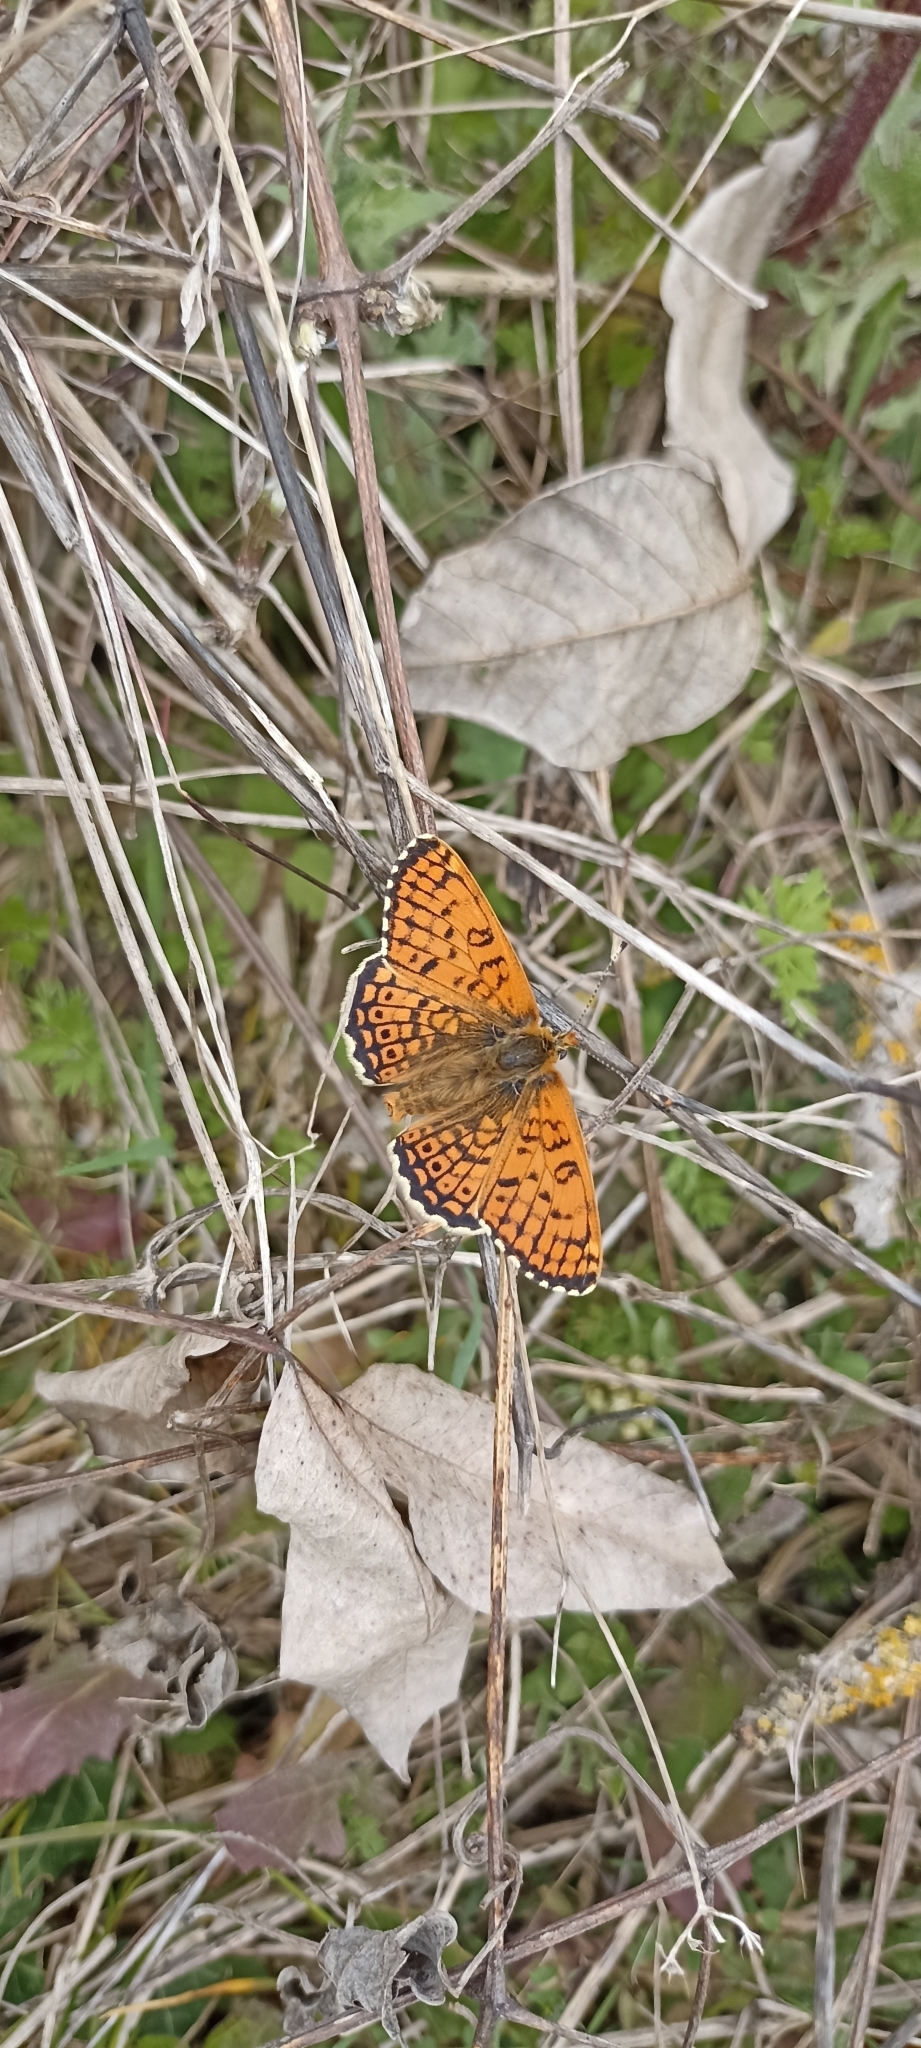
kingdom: Animalia
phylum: Arthropoda
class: Insecta
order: Lepidoptera
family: Nymphalidae
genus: Melitaea
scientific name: Melitaea cinxia
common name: Glanville fritillary
